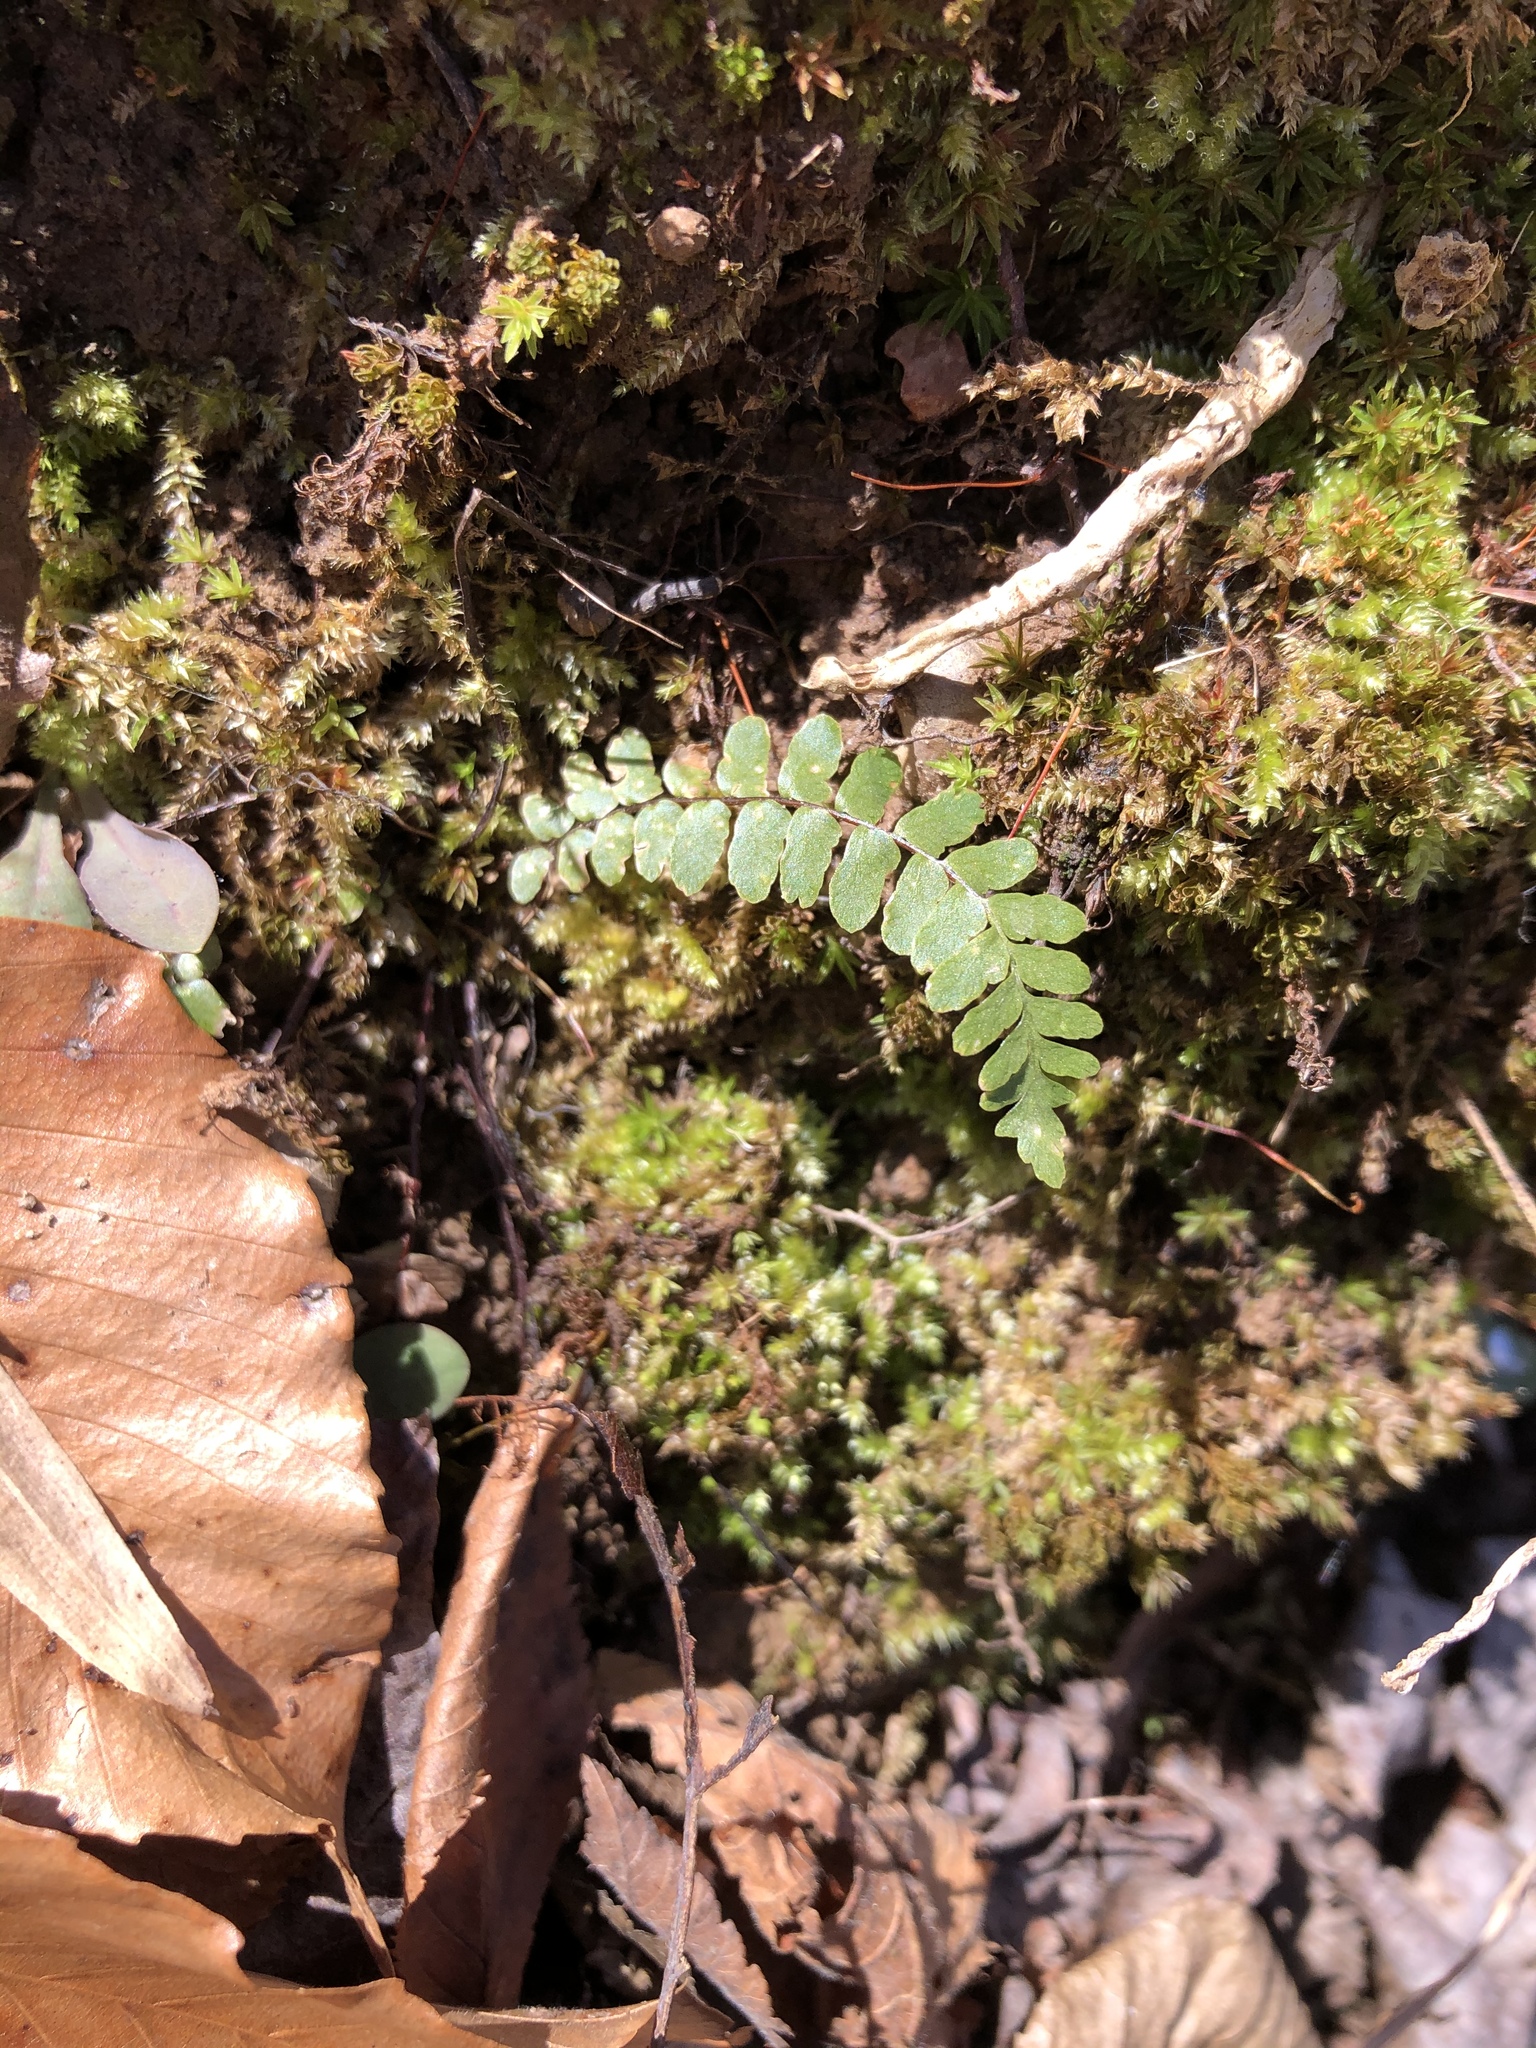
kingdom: Plantae
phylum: Tracheophyta
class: Polypodiopsida
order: Polypodiales
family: Aspleniaceae
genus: Asplenium
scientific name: Asplenium platyneuron
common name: Ebony spleenwort
